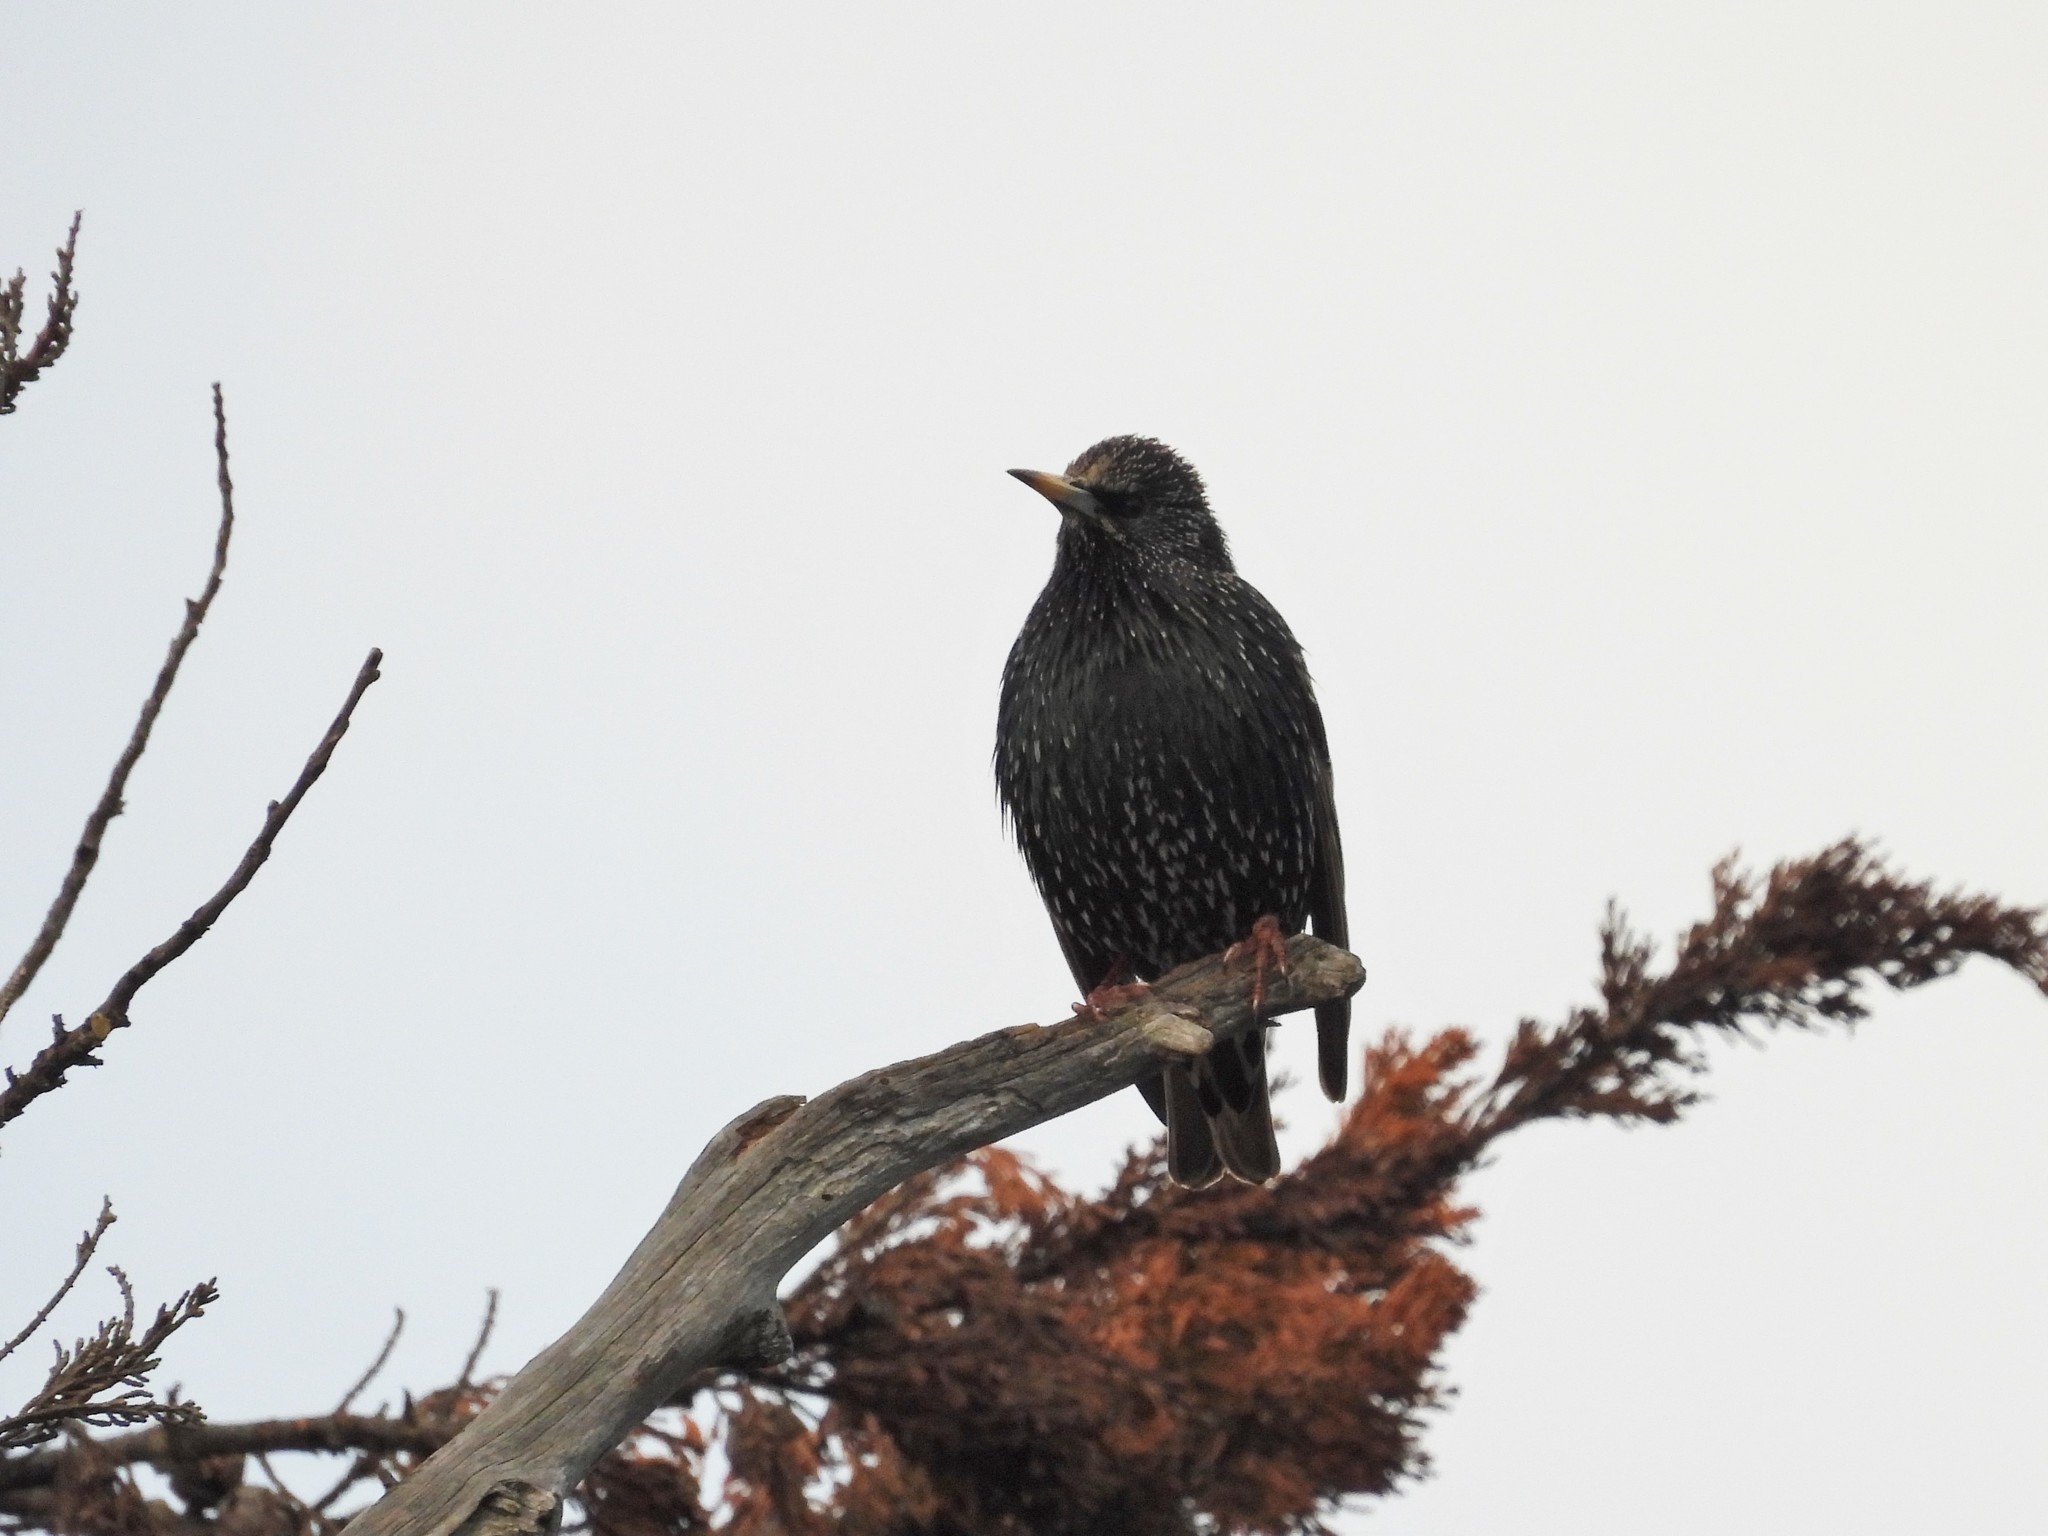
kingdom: Animalia
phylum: Chordata
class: Aves
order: Passeriformes
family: Sturnidae
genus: Sturnus
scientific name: Sturnus vulgaris
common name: Common starling
